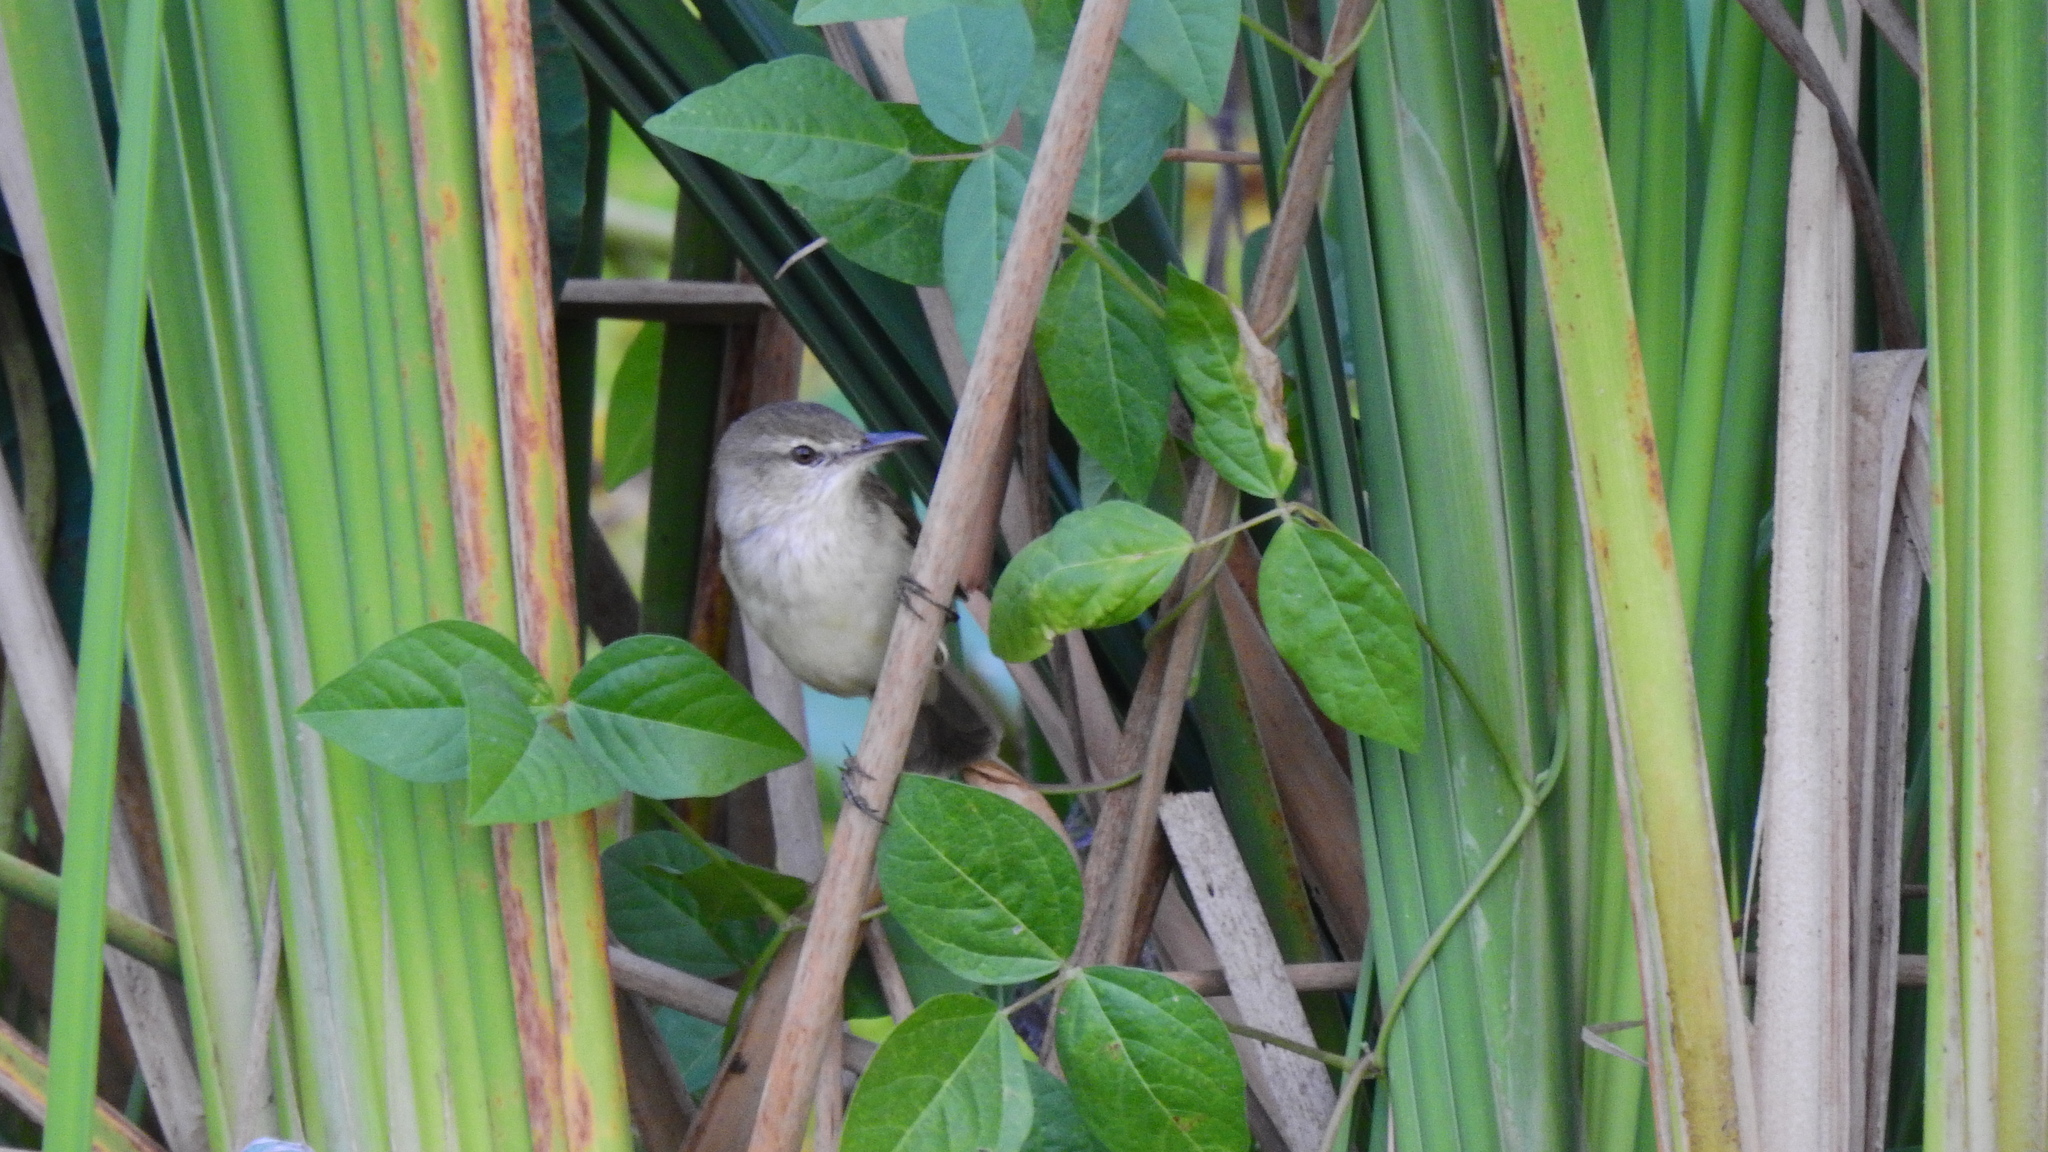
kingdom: Animalia
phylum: Chordata
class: Aves
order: Passeriformes
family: Acrocephalidae
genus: Acrocephalus
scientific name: Acrocephalus australis
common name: Australian reed warbler
